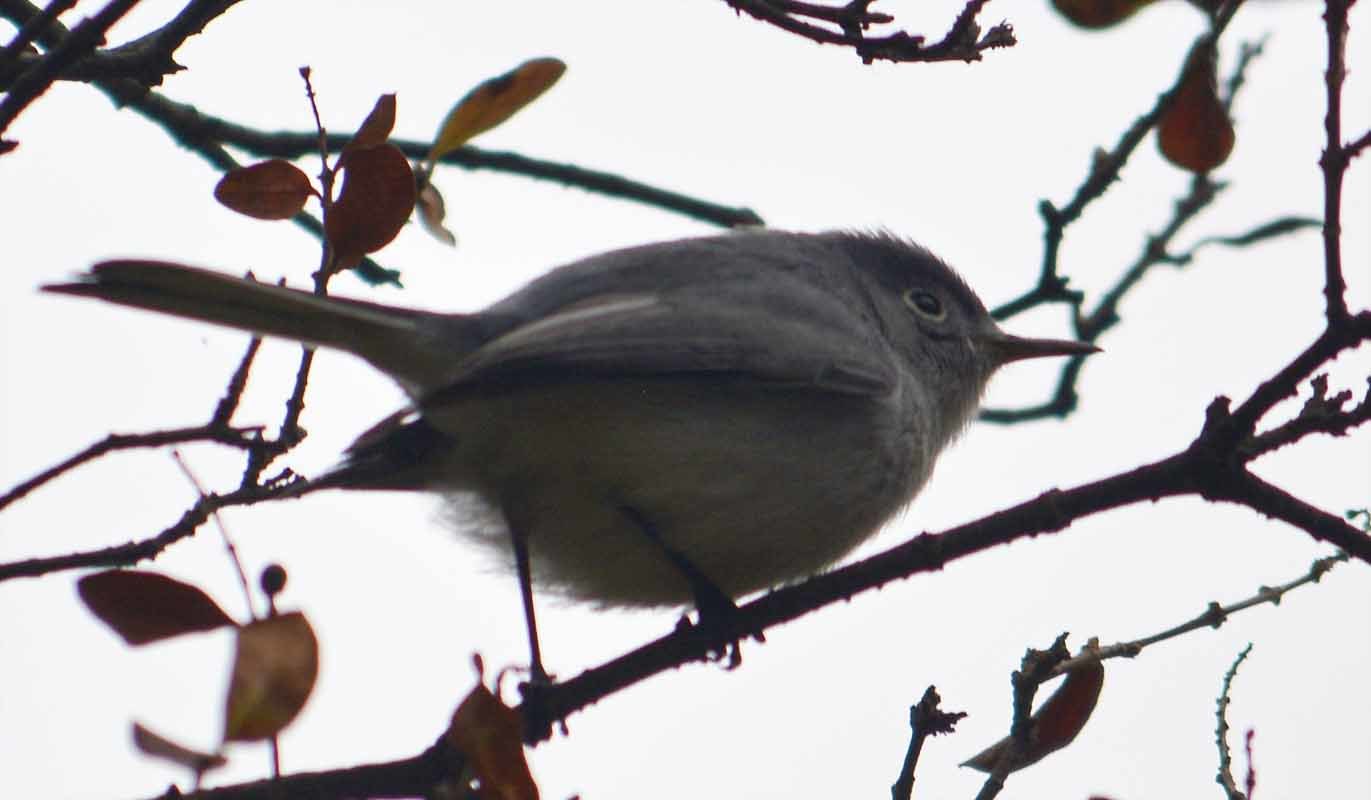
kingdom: Animalia
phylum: Chordata
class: Aves
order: Passeriformes
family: Polioptilidae
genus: Polioptila
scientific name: Polioptila caerulea
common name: Blue-gray gnatcatcher
